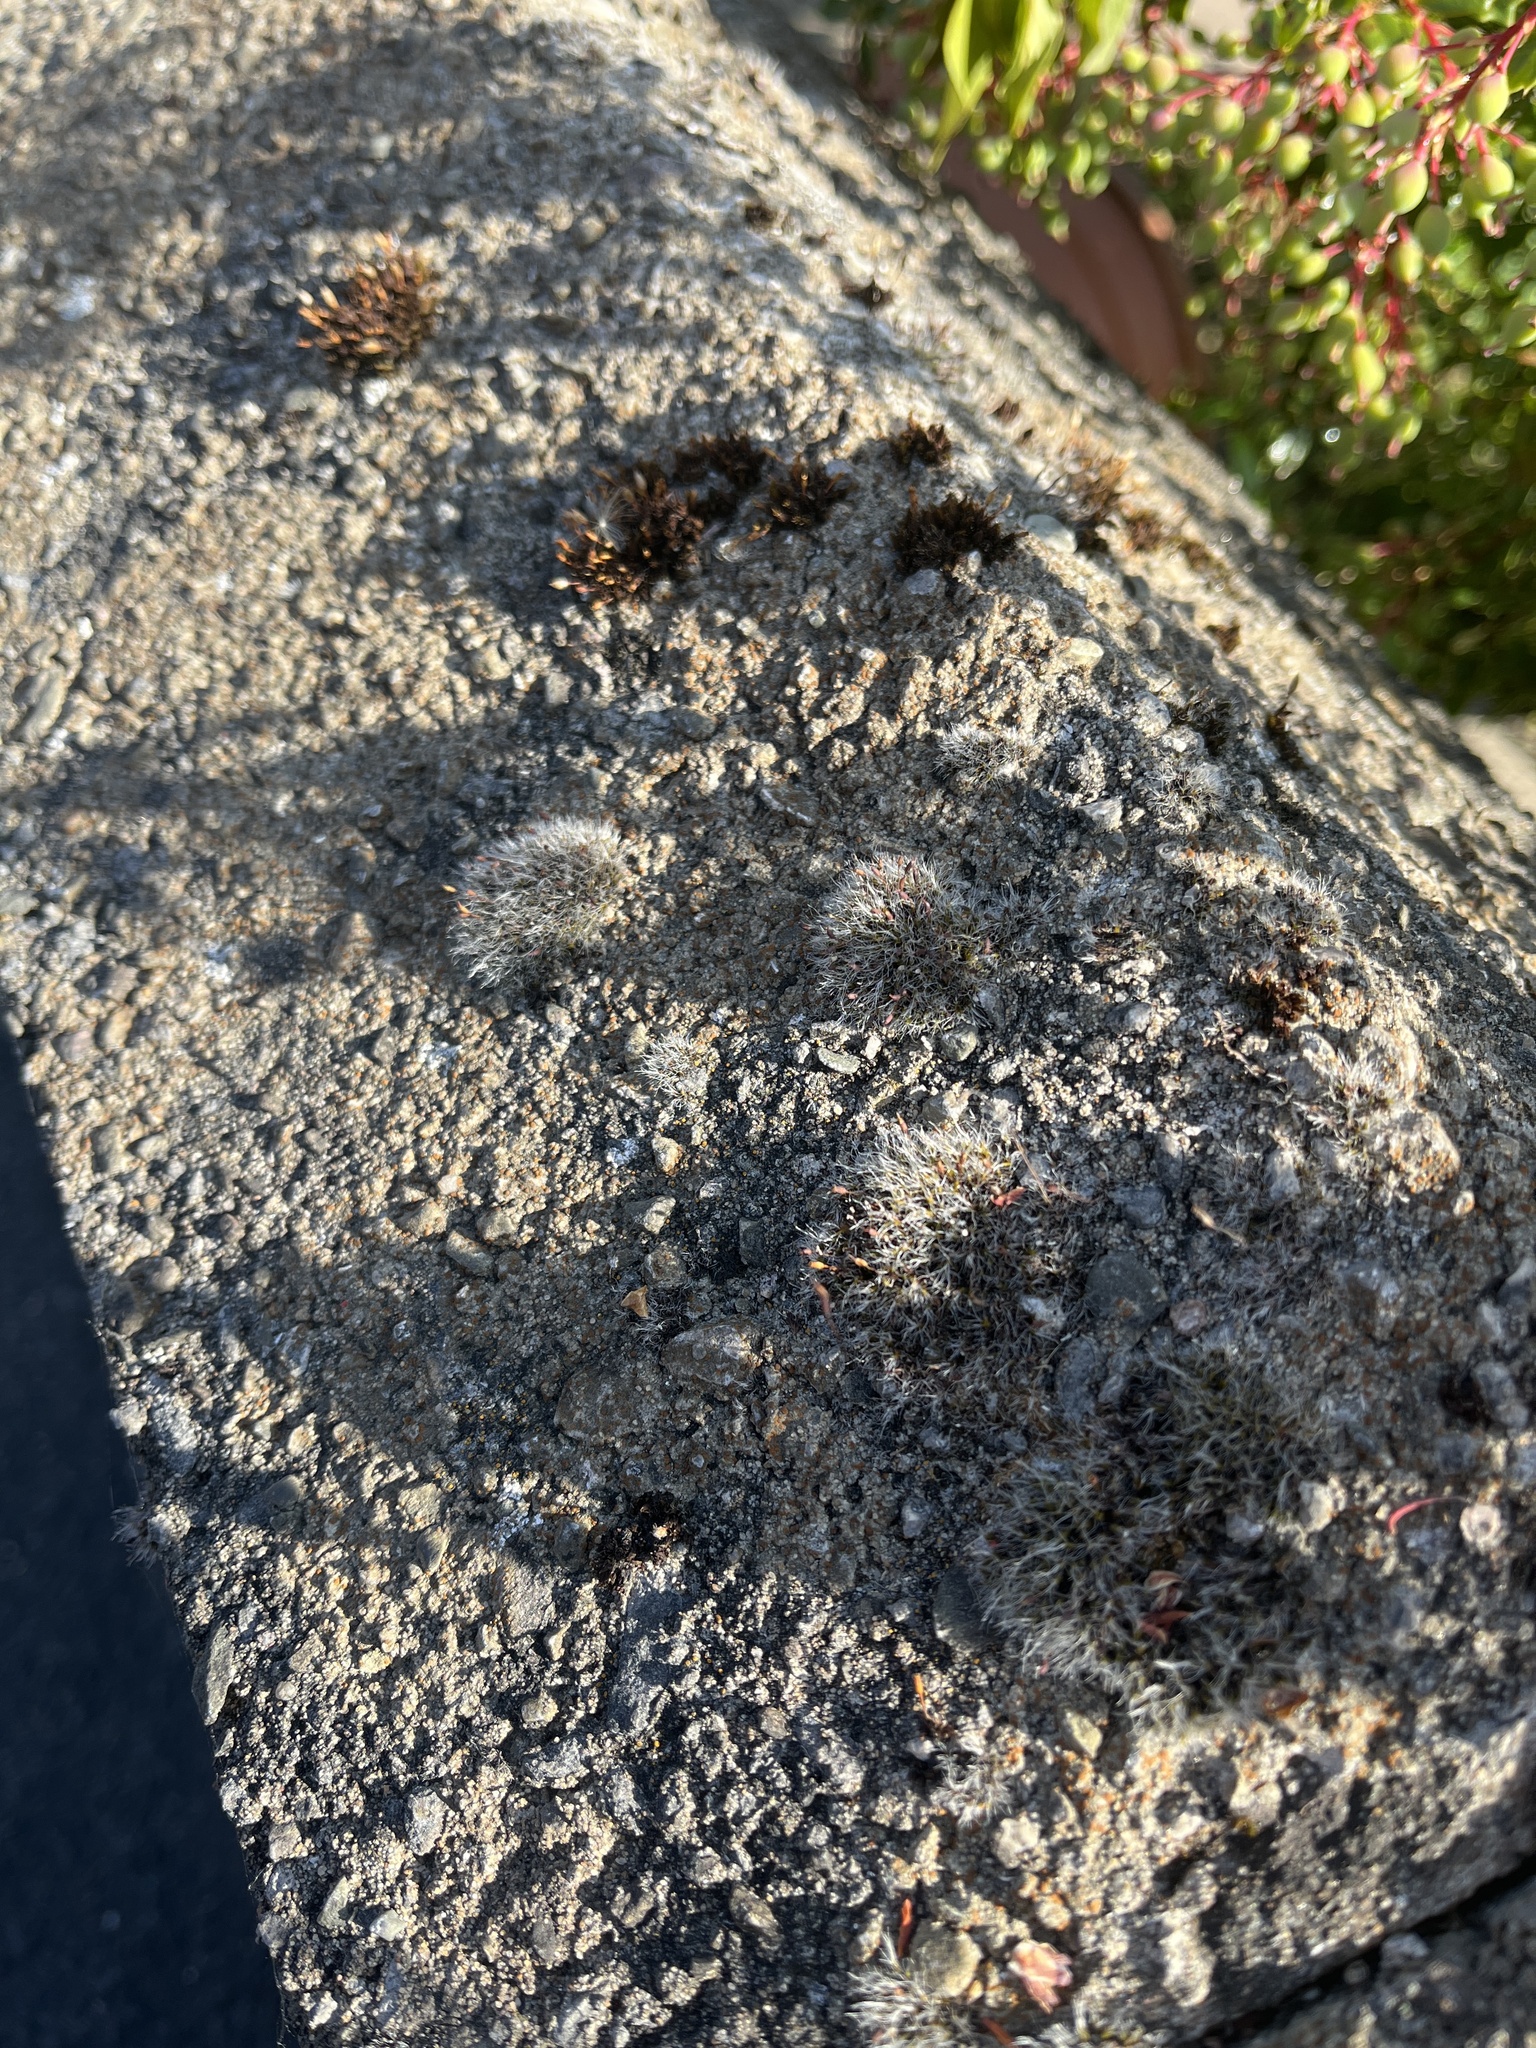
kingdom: Plantae
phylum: Bryophyta
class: Bryopsida
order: Grimmiales
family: Grimmiaceae
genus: Grimmia
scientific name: Grimmia pulvinata
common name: Grey-cushioned grimmia
